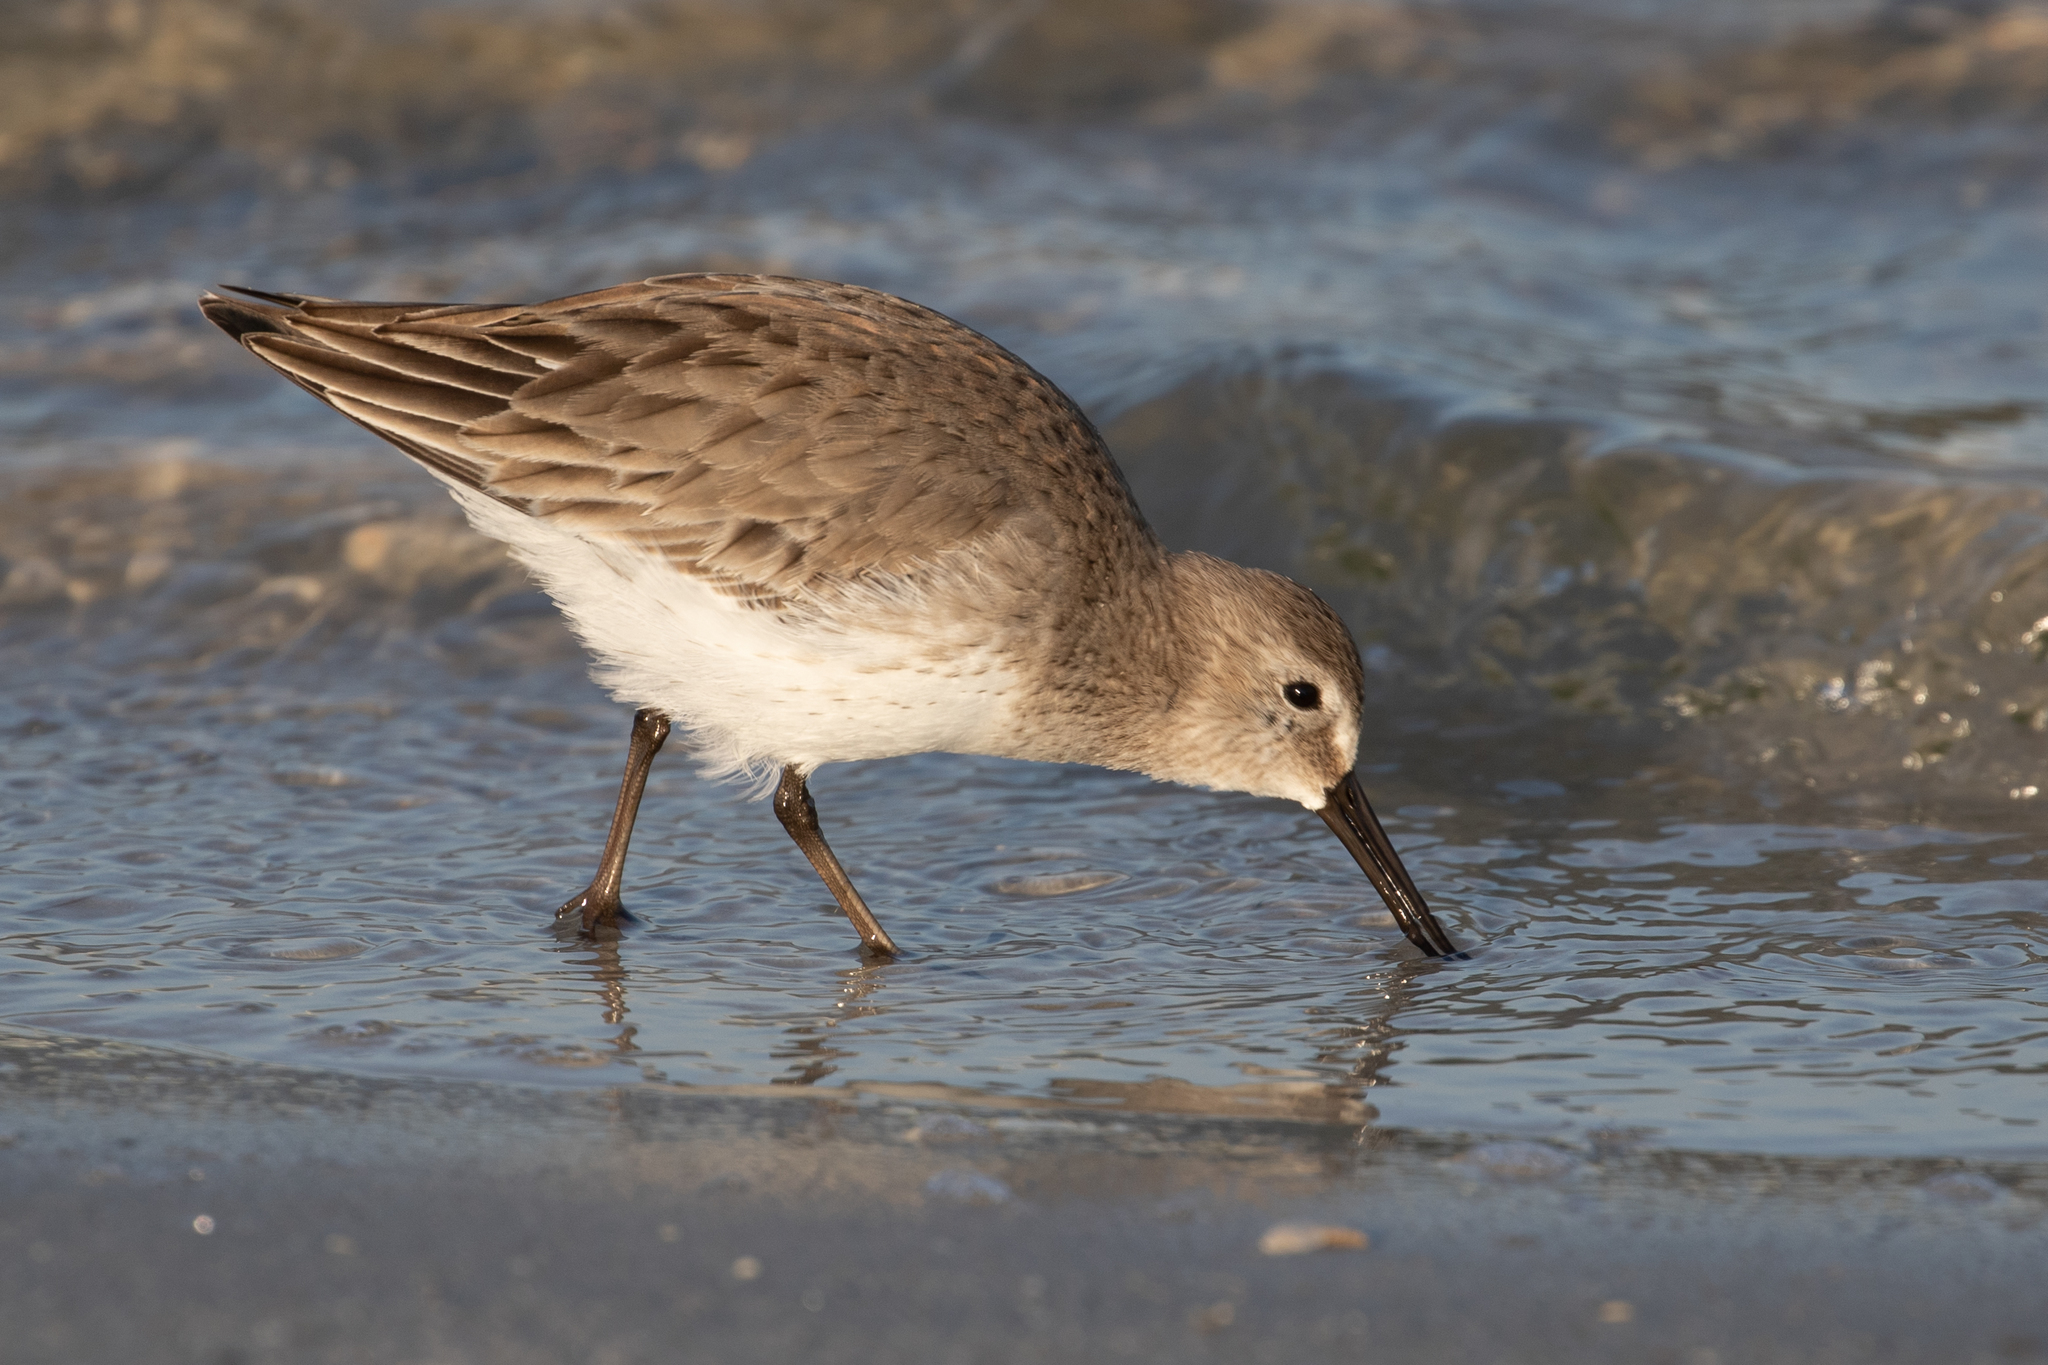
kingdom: Animalia
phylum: Chordata
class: Aves
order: Charadriiformes
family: Scolopacidae
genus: Calidris
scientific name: Calidris alpina
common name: Dunlin
